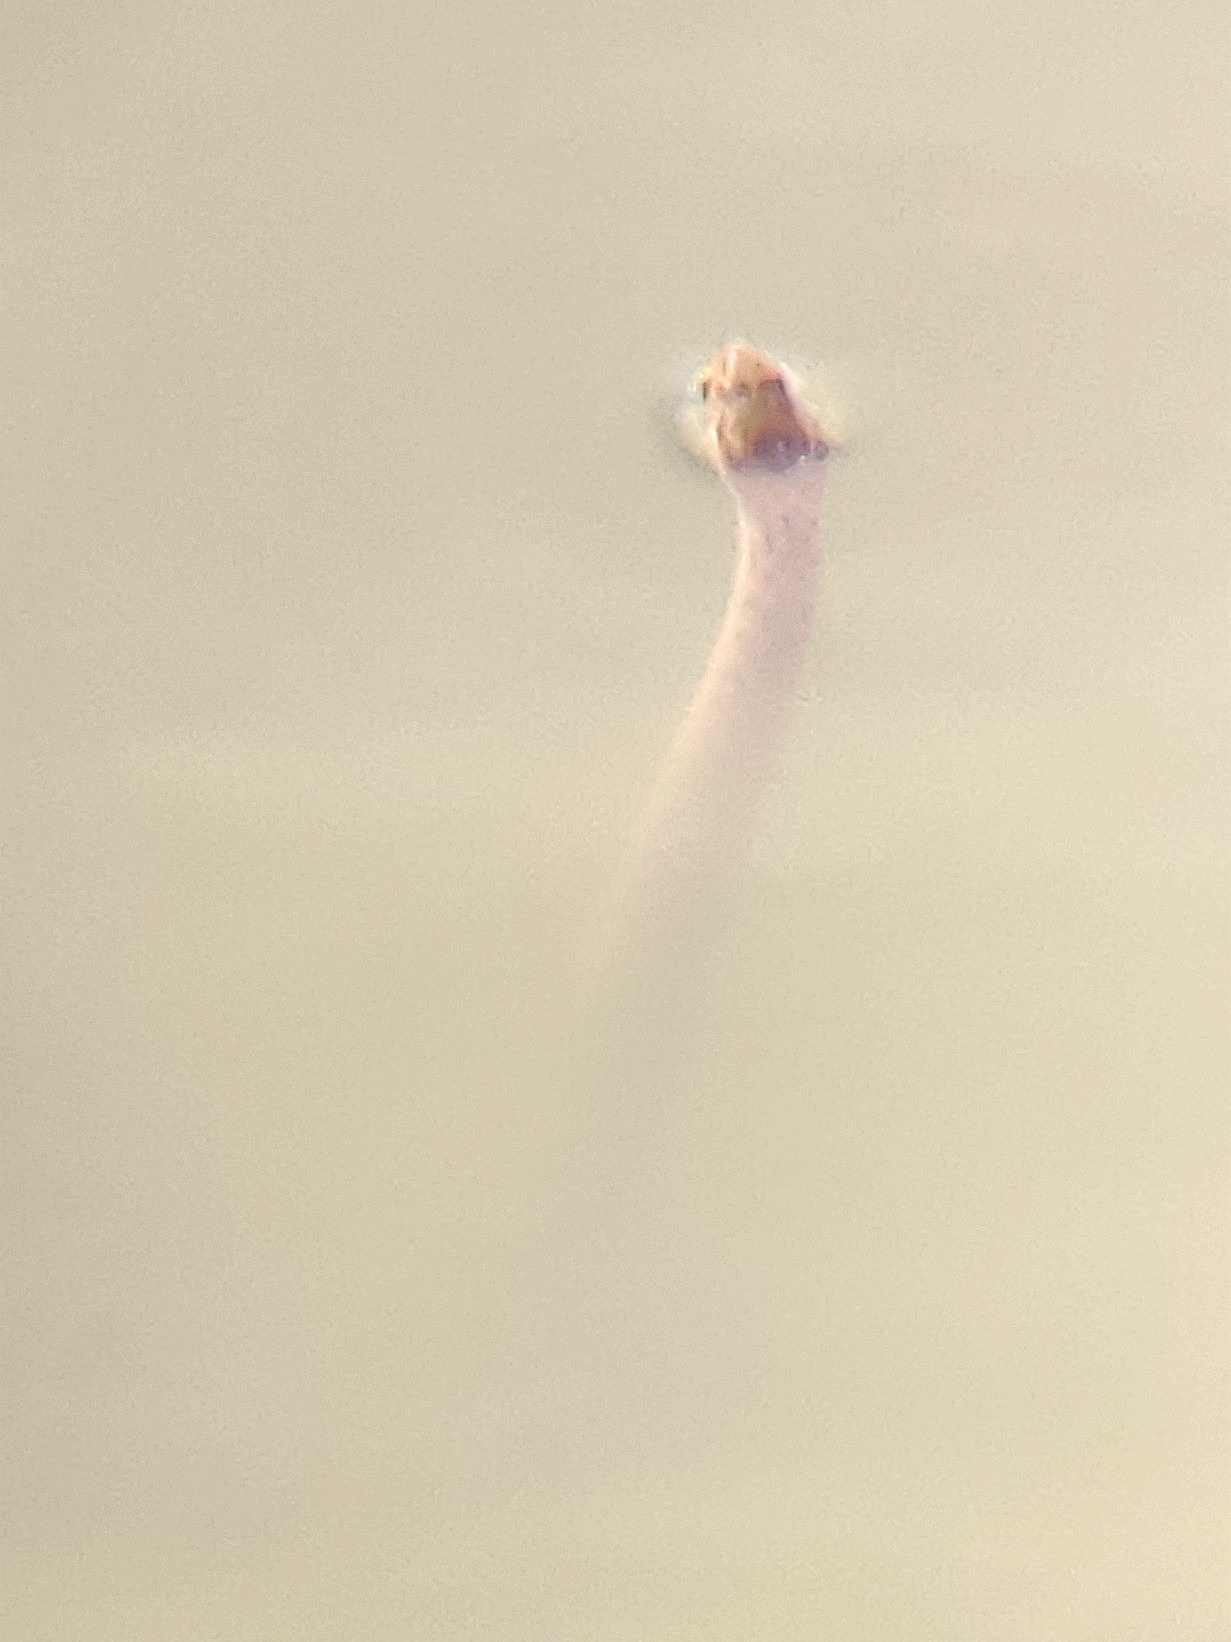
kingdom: Animalia
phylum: Chordata
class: Squamata
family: Colubridae
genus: Fowlea
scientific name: Fowlea piscator
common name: Asiatic water snake
